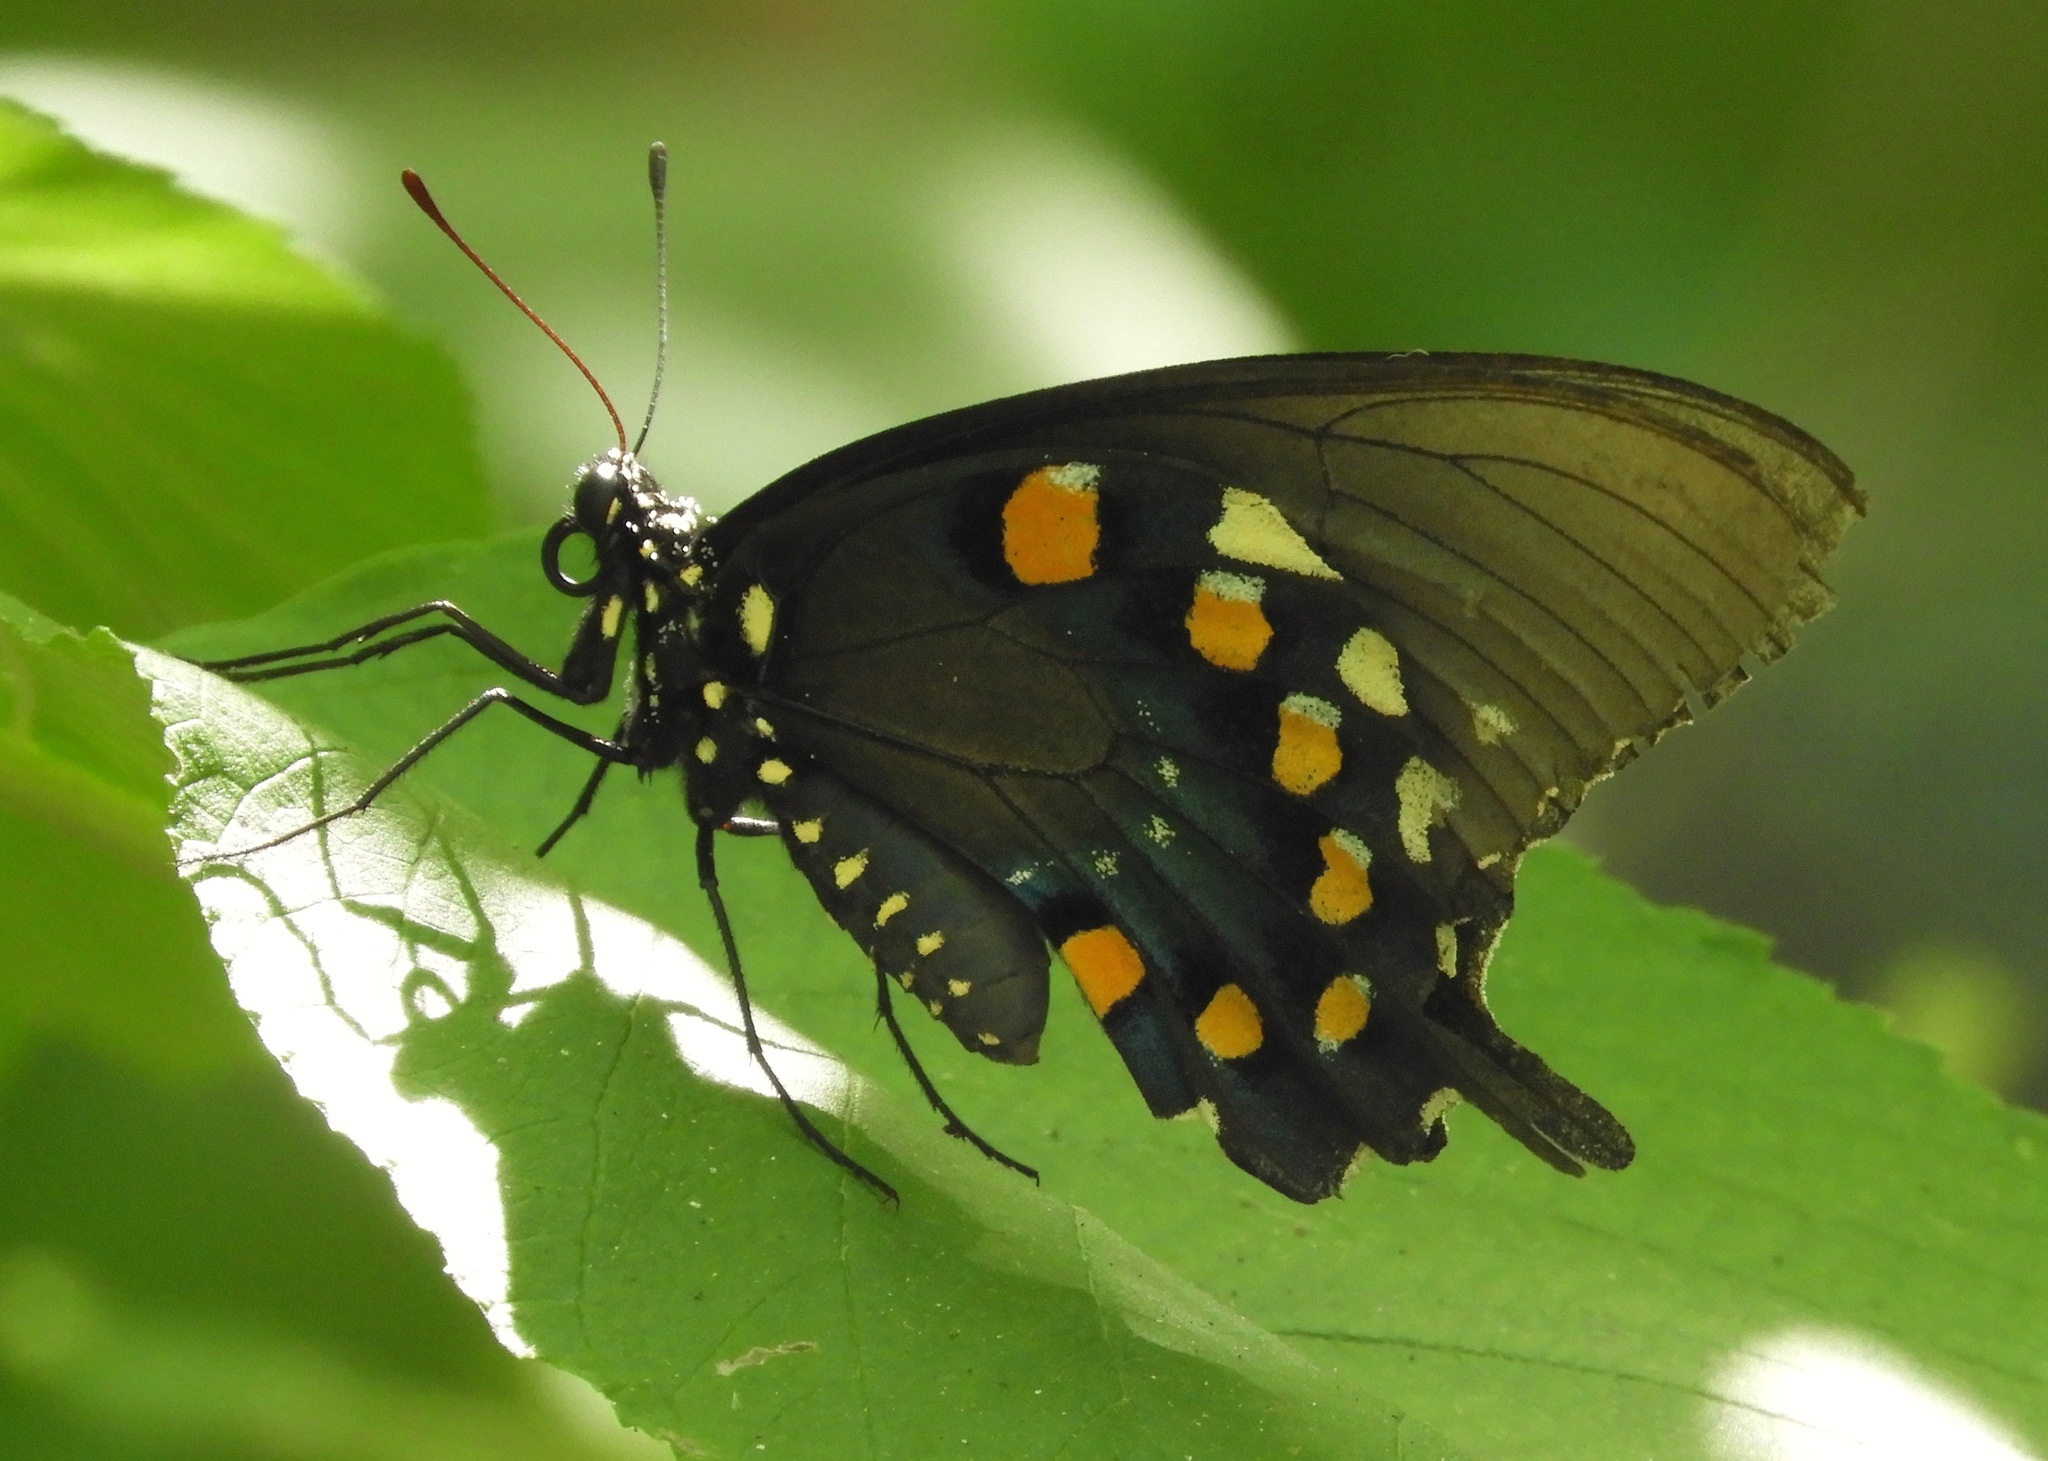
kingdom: Animalia
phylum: Arthropoda
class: Insecta
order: Lepidoptera
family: Papilionidae
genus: Battus
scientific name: Battus philenor
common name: Pipevine swallowtail
